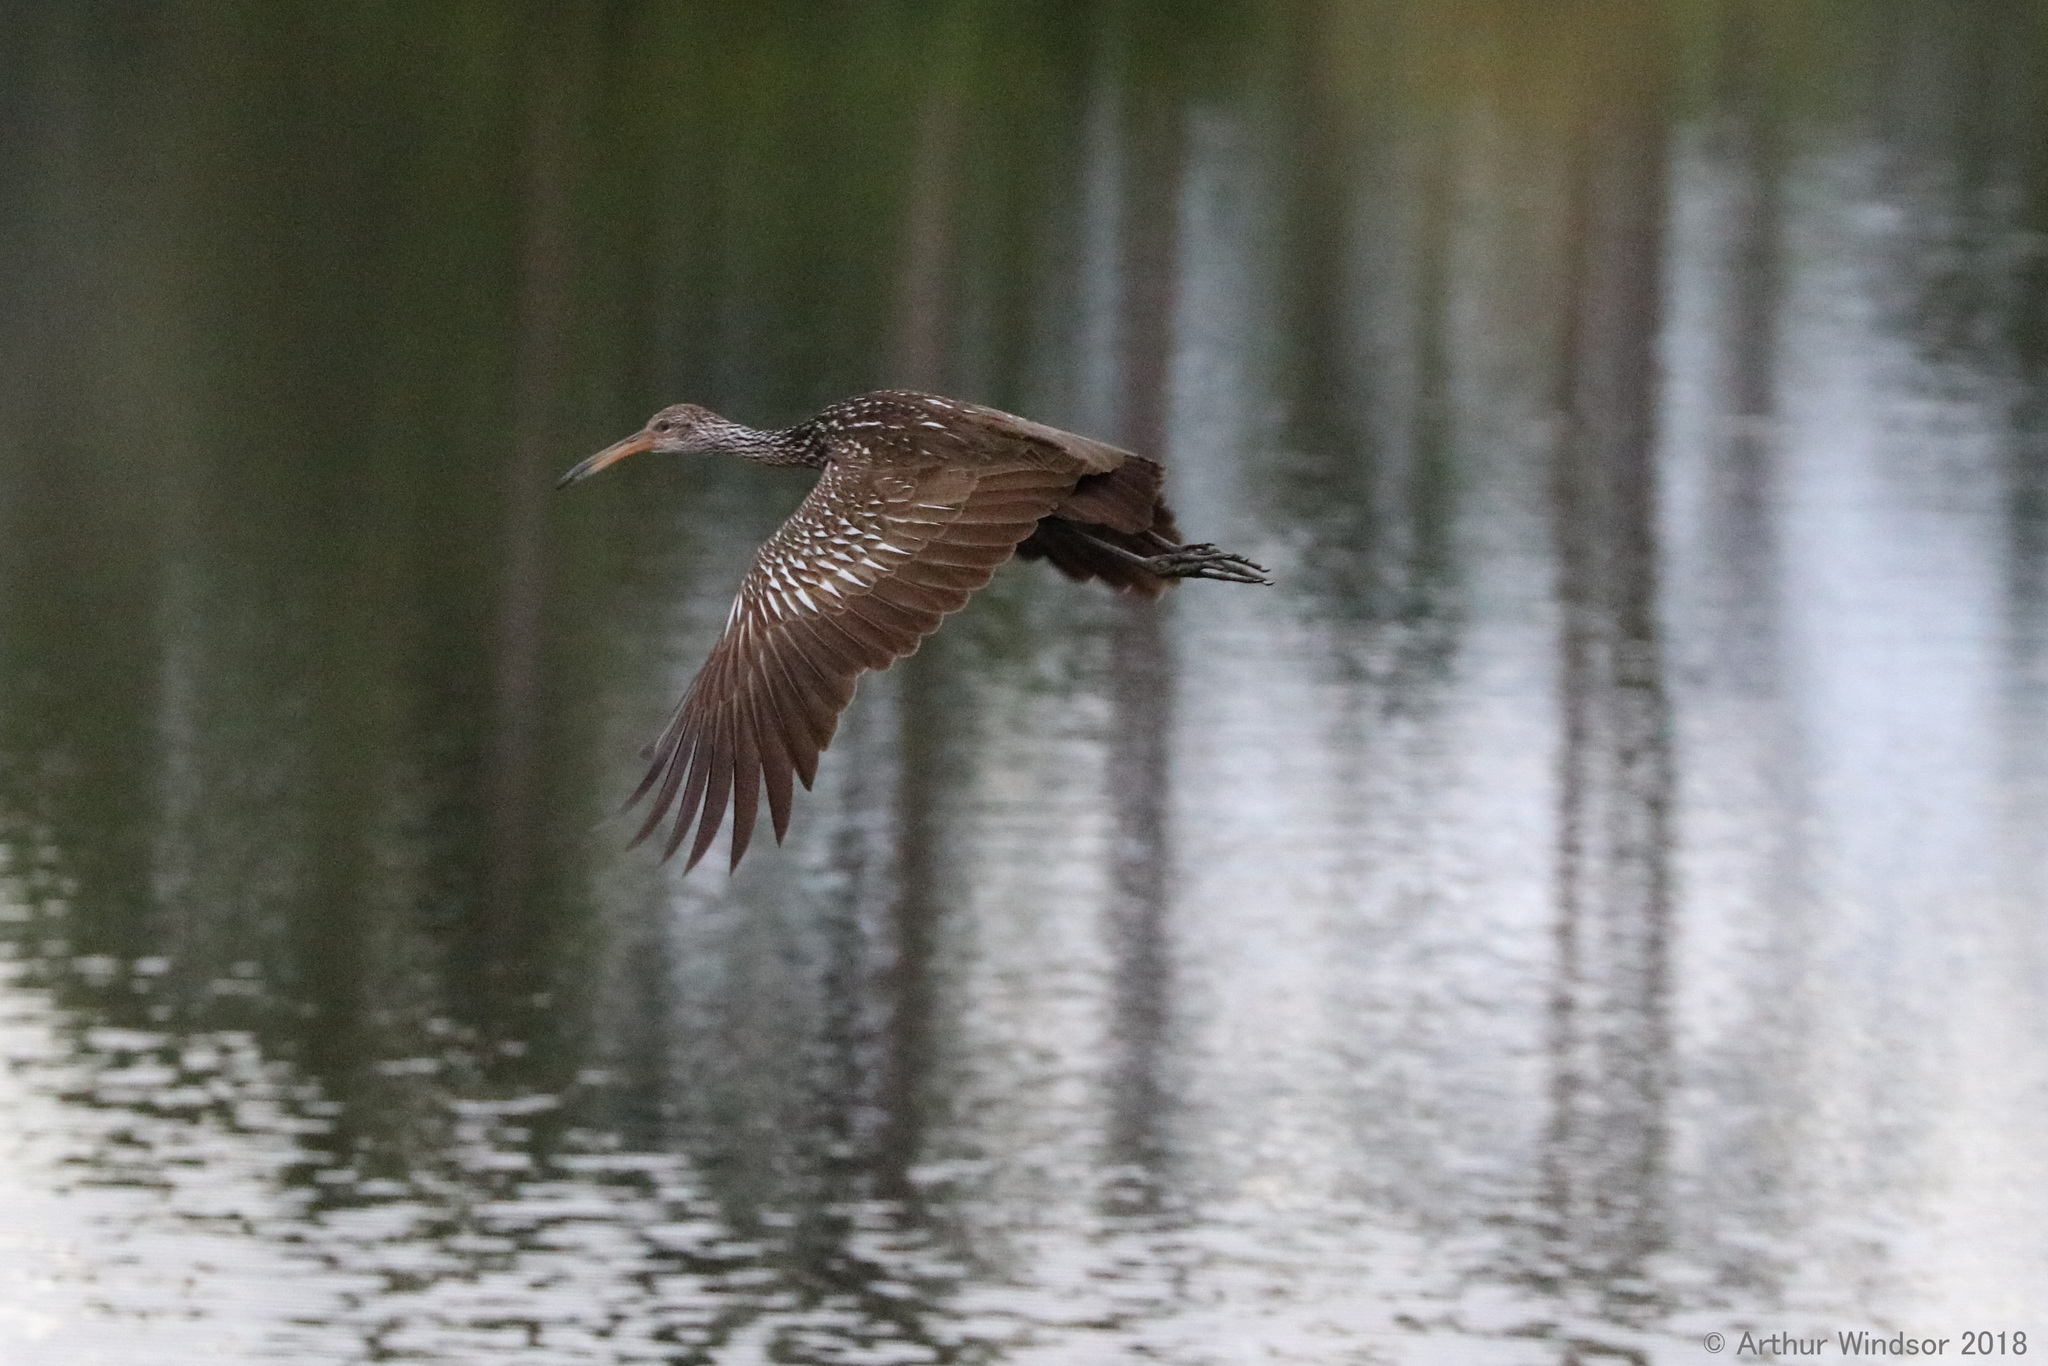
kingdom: Animalia
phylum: Chordata
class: Aves
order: Gruiformes
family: Aramidae
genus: Aramus
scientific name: Aramus guarauna
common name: Limpkin
